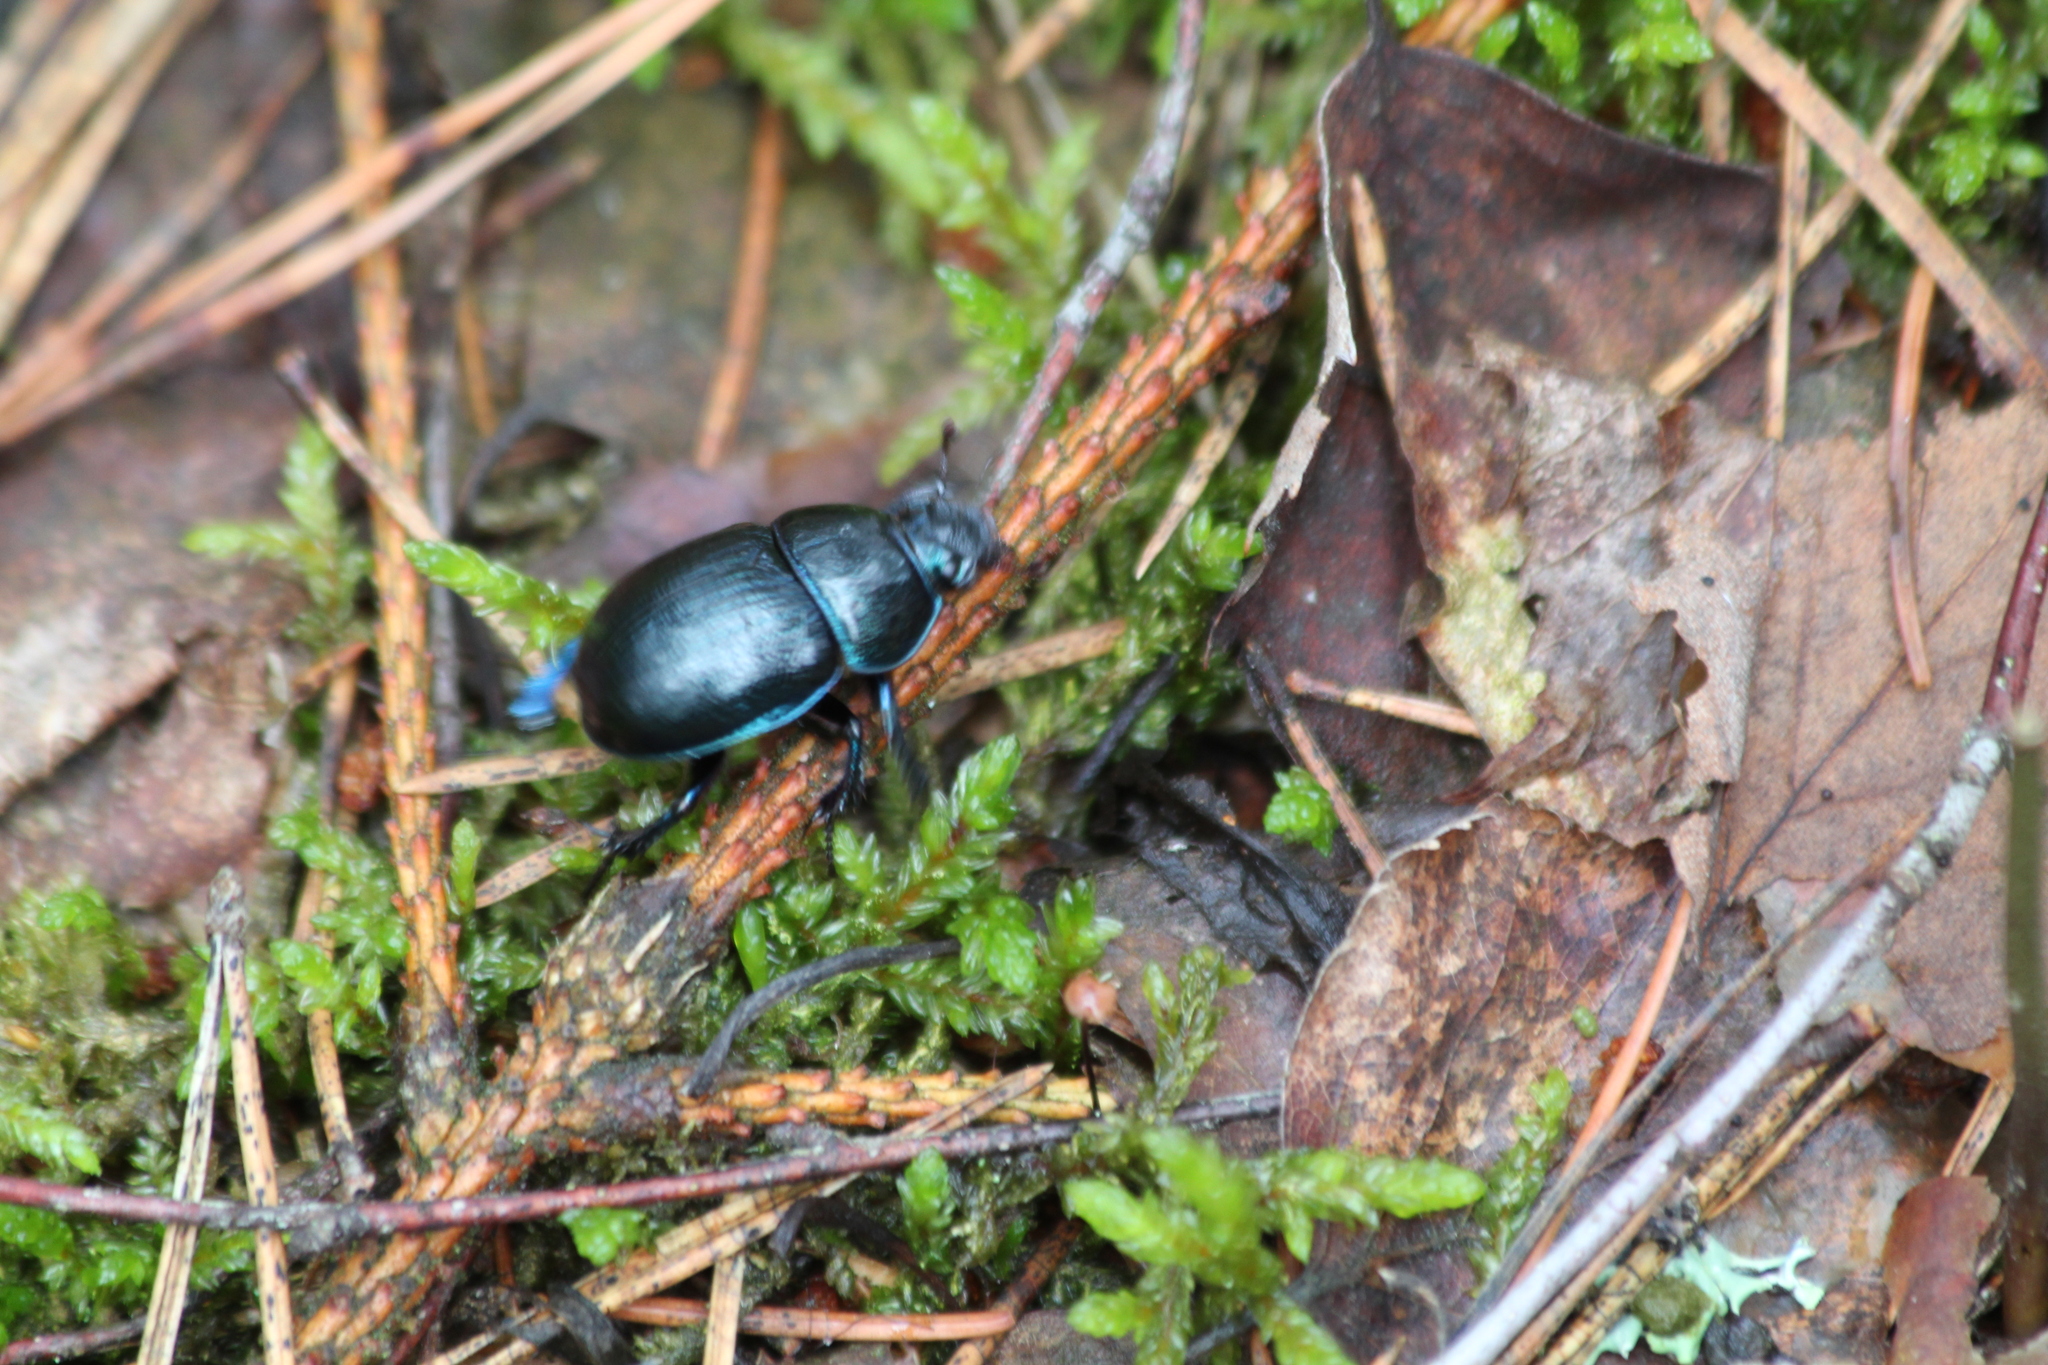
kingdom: Animalia
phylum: Arthropoda
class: Insecta
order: Coleoptera
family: Geotrupidae
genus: Anoplotrupes
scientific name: Anoplotrupes stercorosus
